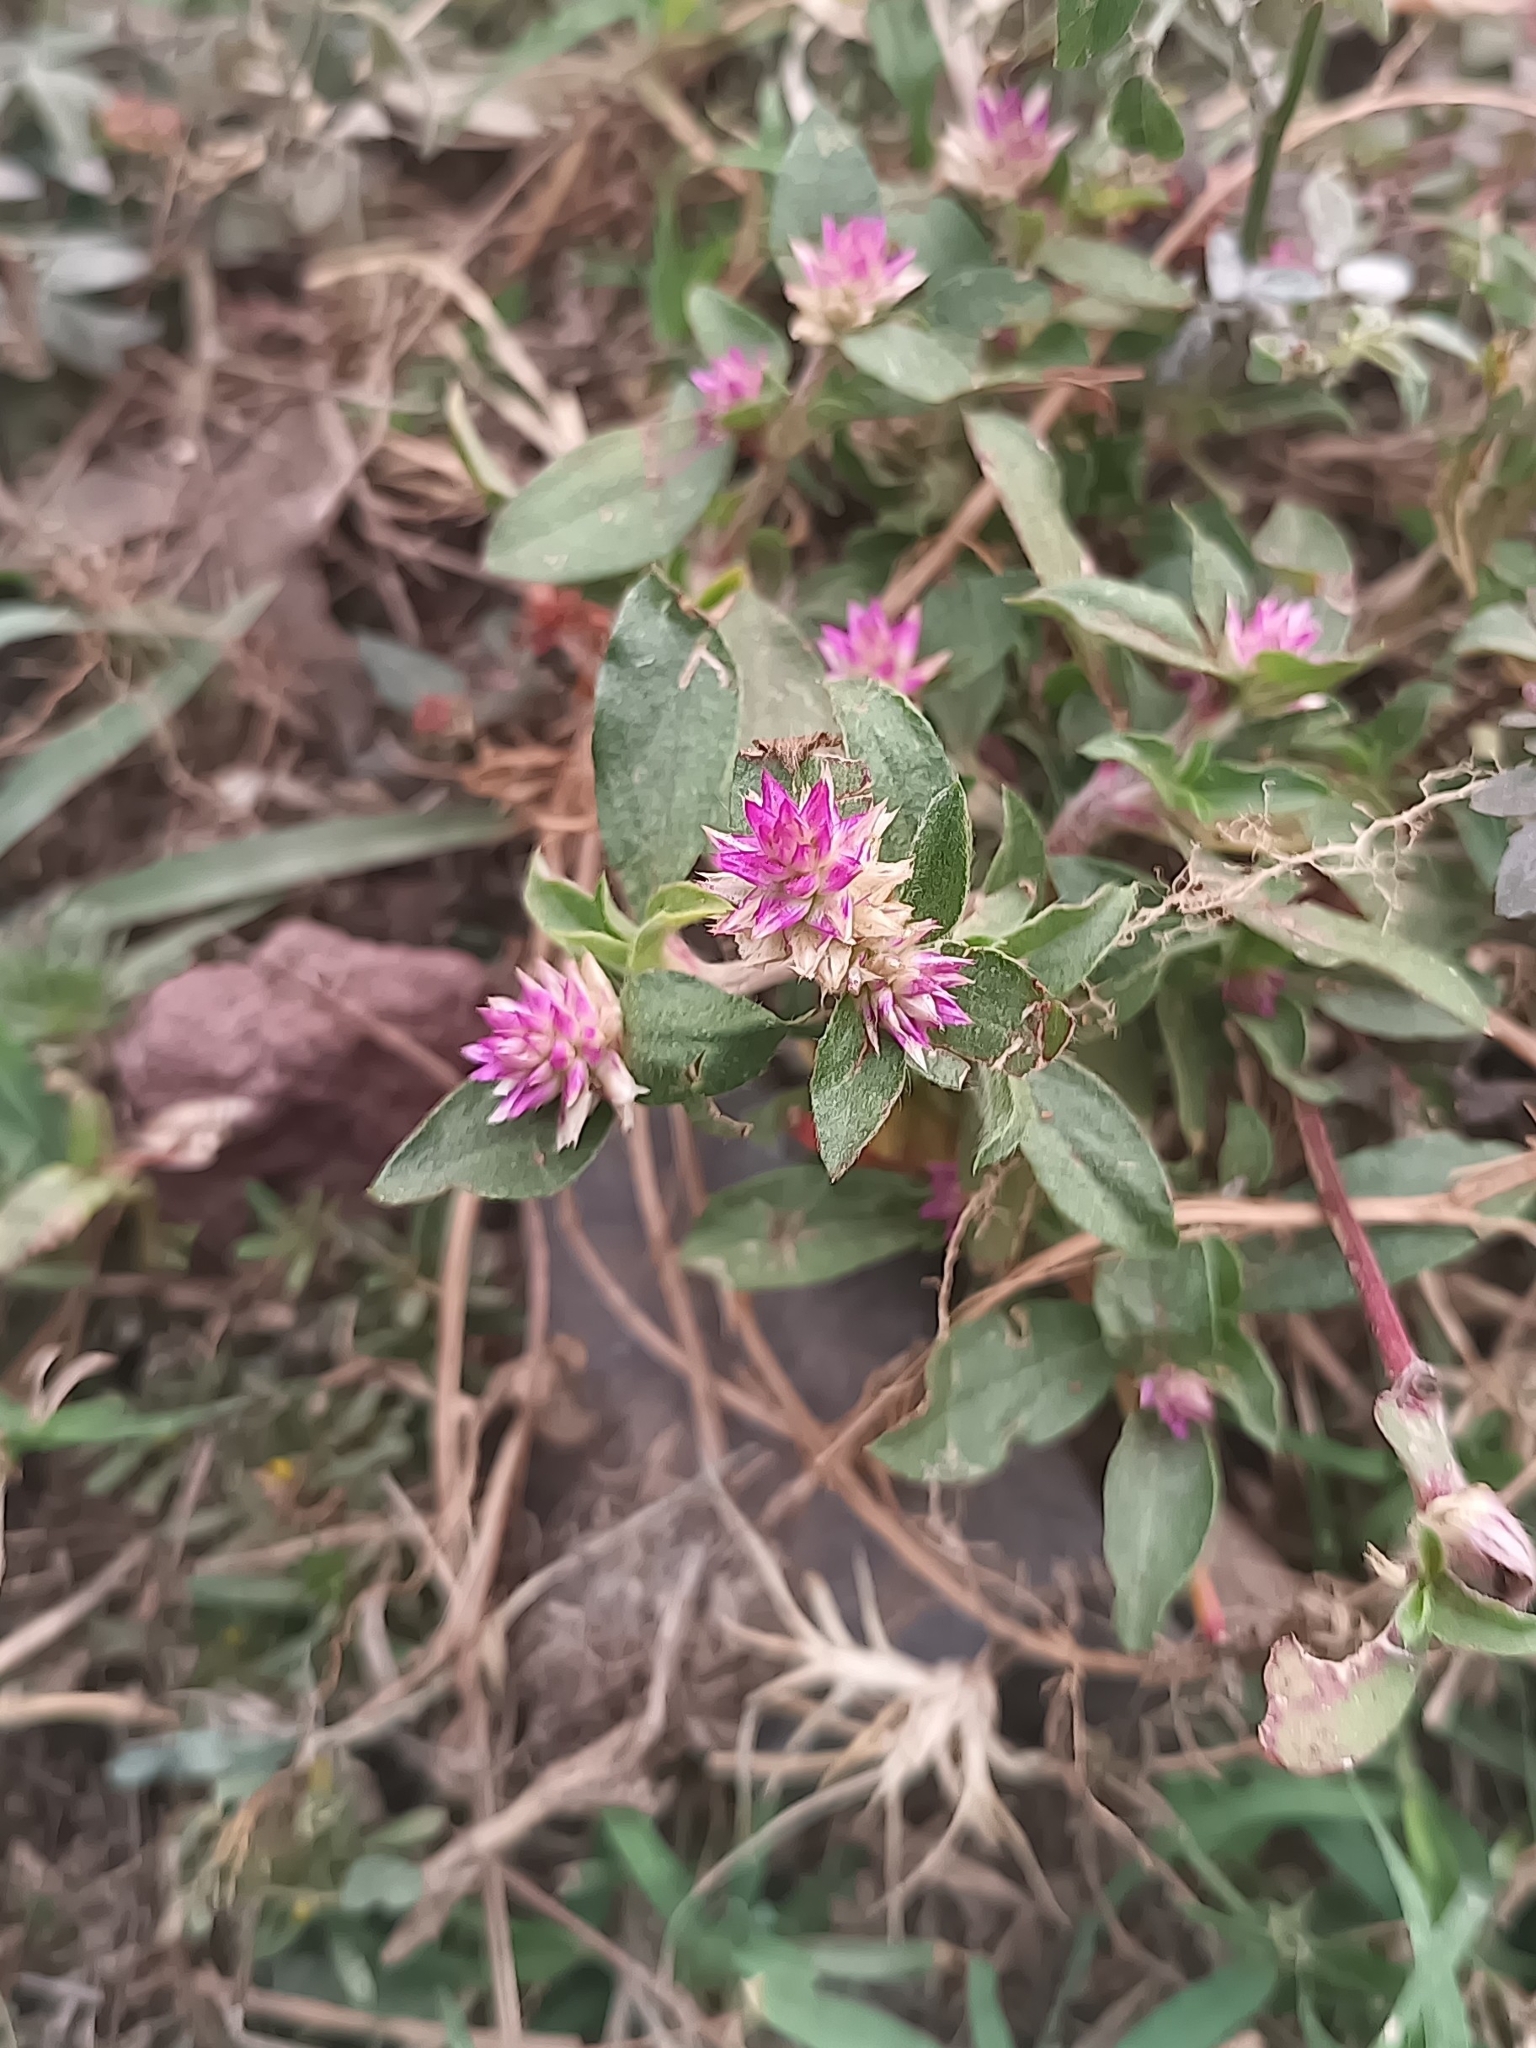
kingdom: Plantae
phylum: Tracheophyta
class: Magnoliopsida
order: Caryophyllales
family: Amaranthaceae
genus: Gomphrena
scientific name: Gomphrena serrata
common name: Arrasa con todo
